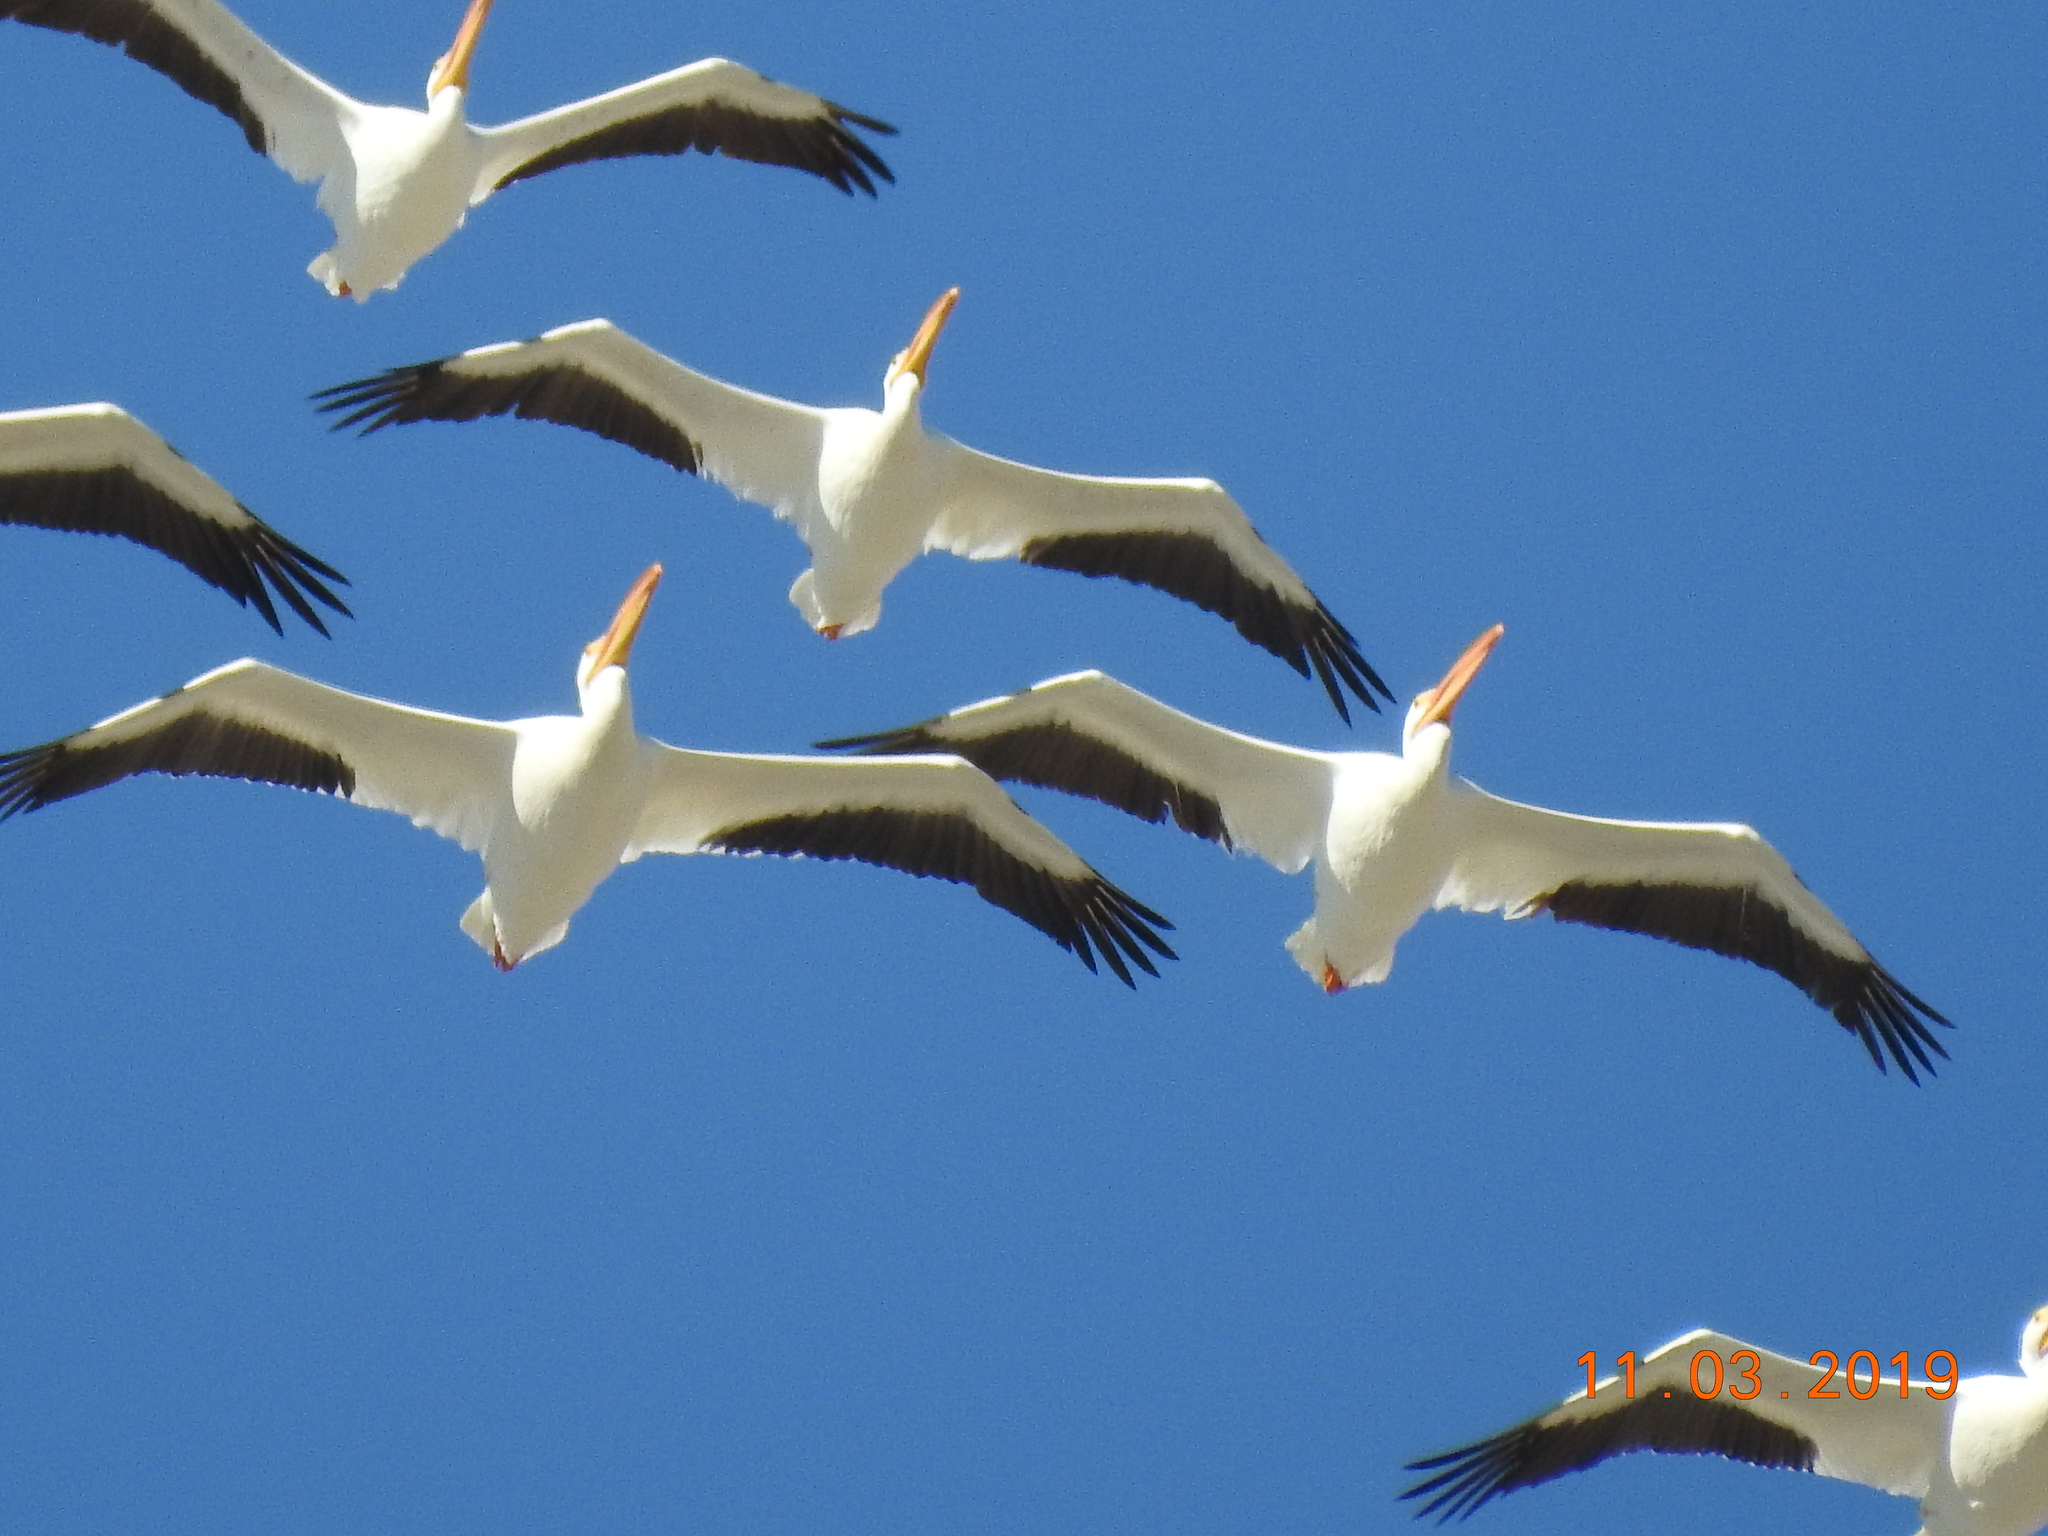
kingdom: Animalia
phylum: Chordata
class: Aves
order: Pelecaniformes
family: Pelecanidae
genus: Pelecanus
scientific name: Pelecanus erythrorhynchos
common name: American white pelican
